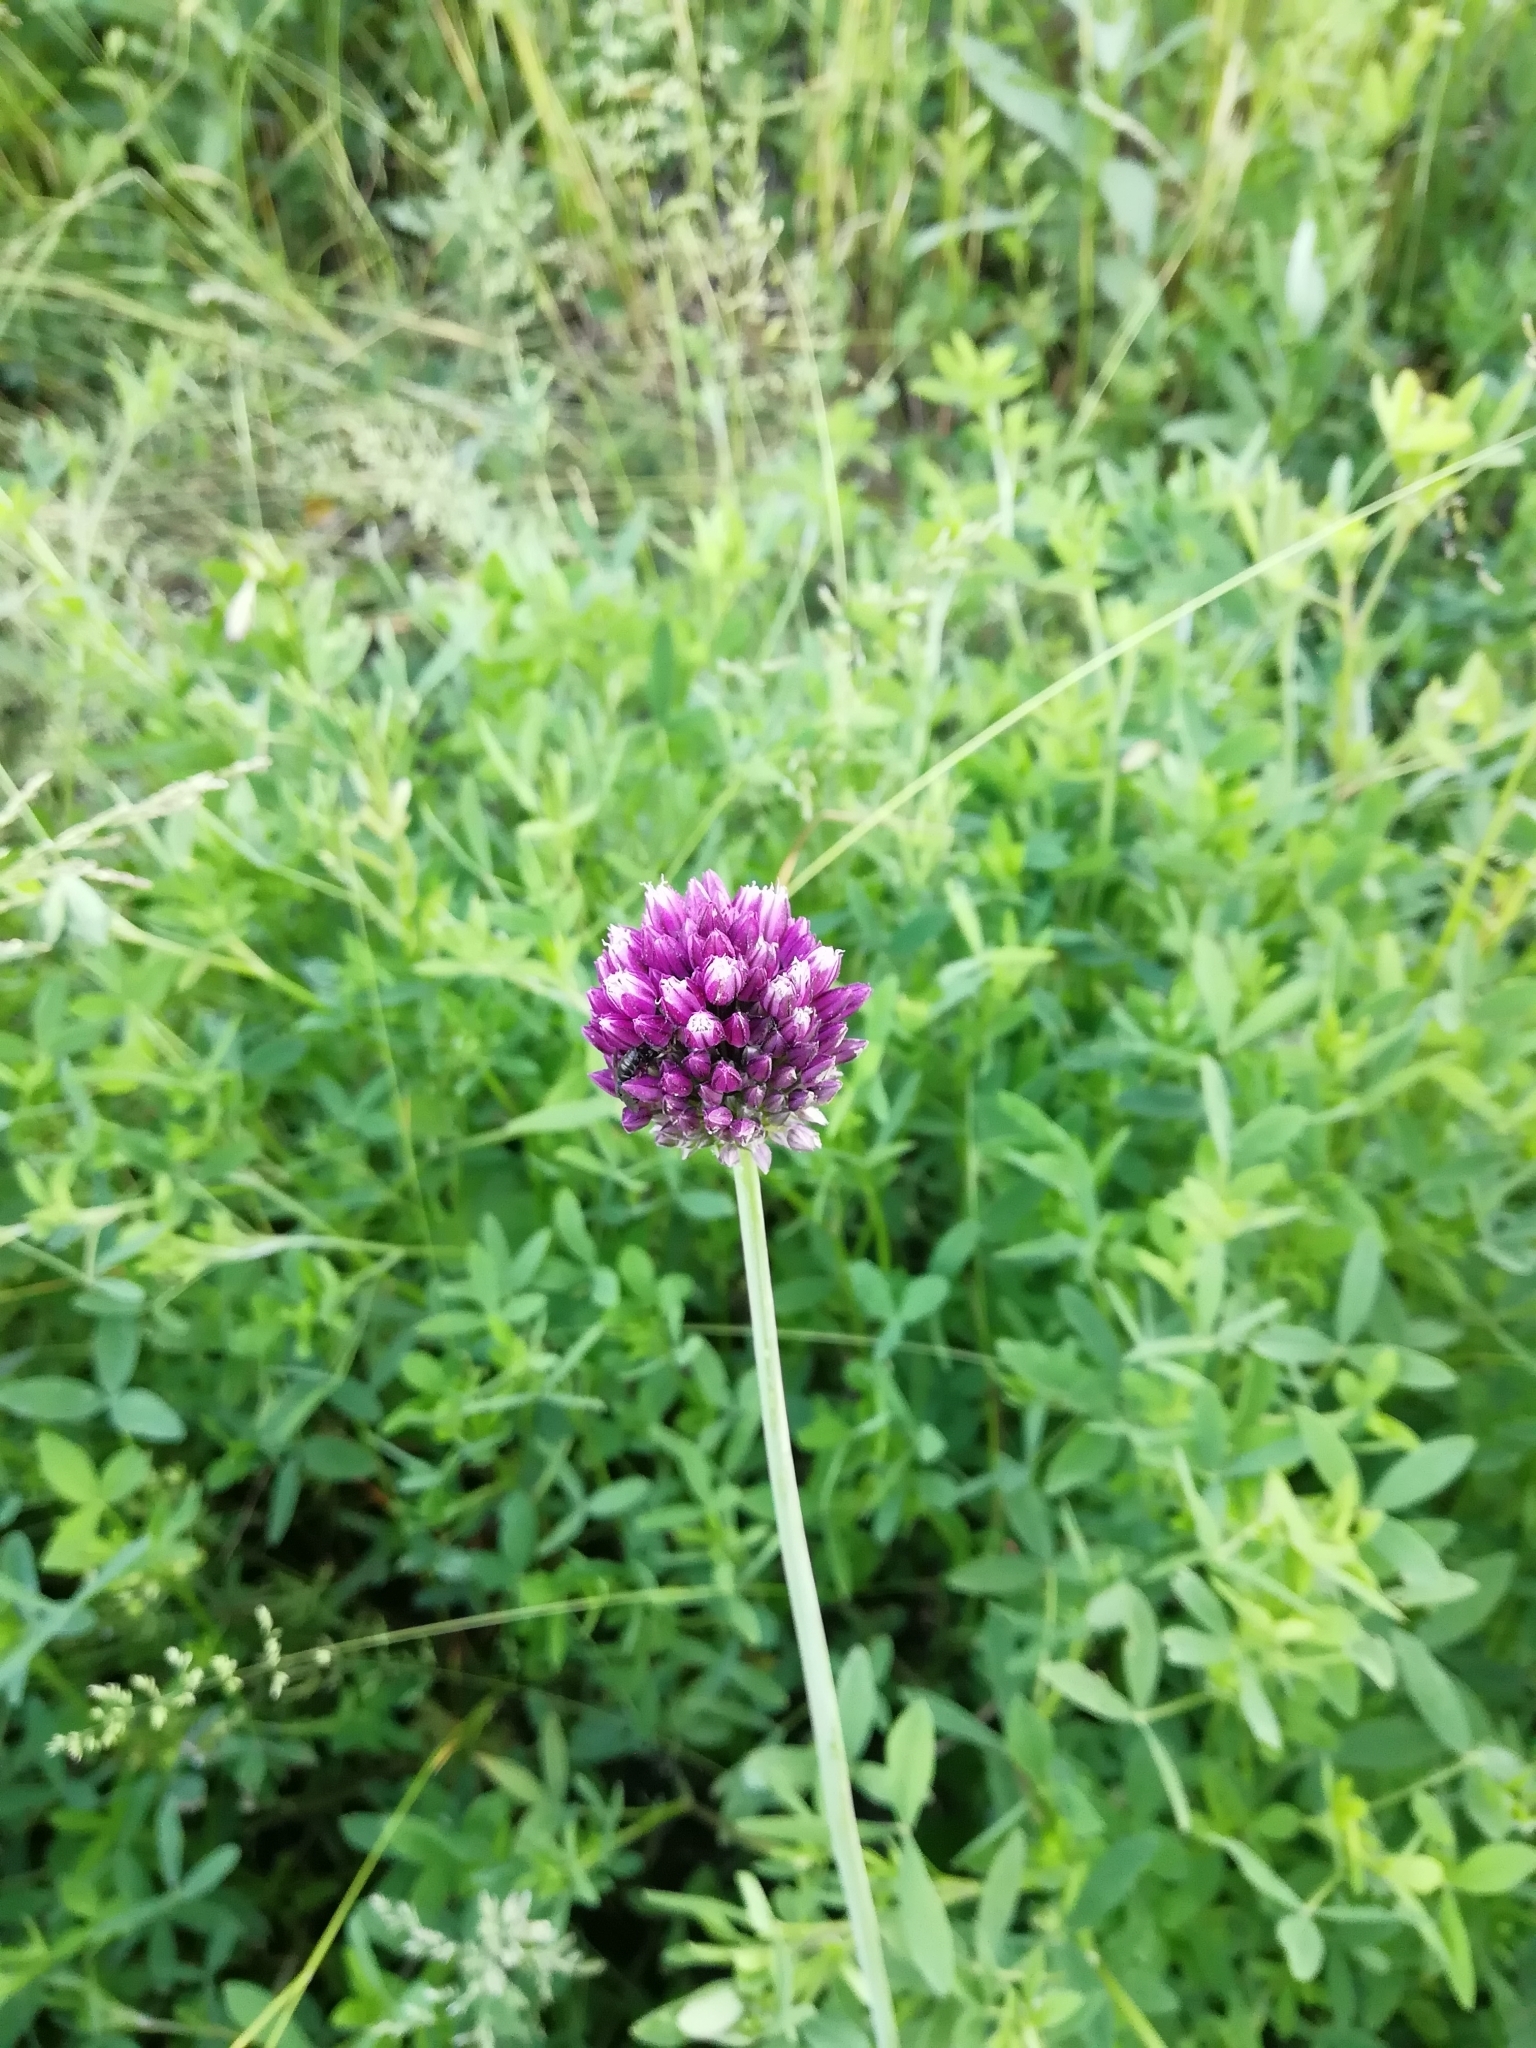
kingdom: Plantae
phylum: Tracheophyta
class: Liliopsida
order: Asparagales
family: Amaryllidaceae
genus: Allium
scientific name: Allium rotundum
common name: Sand leek
